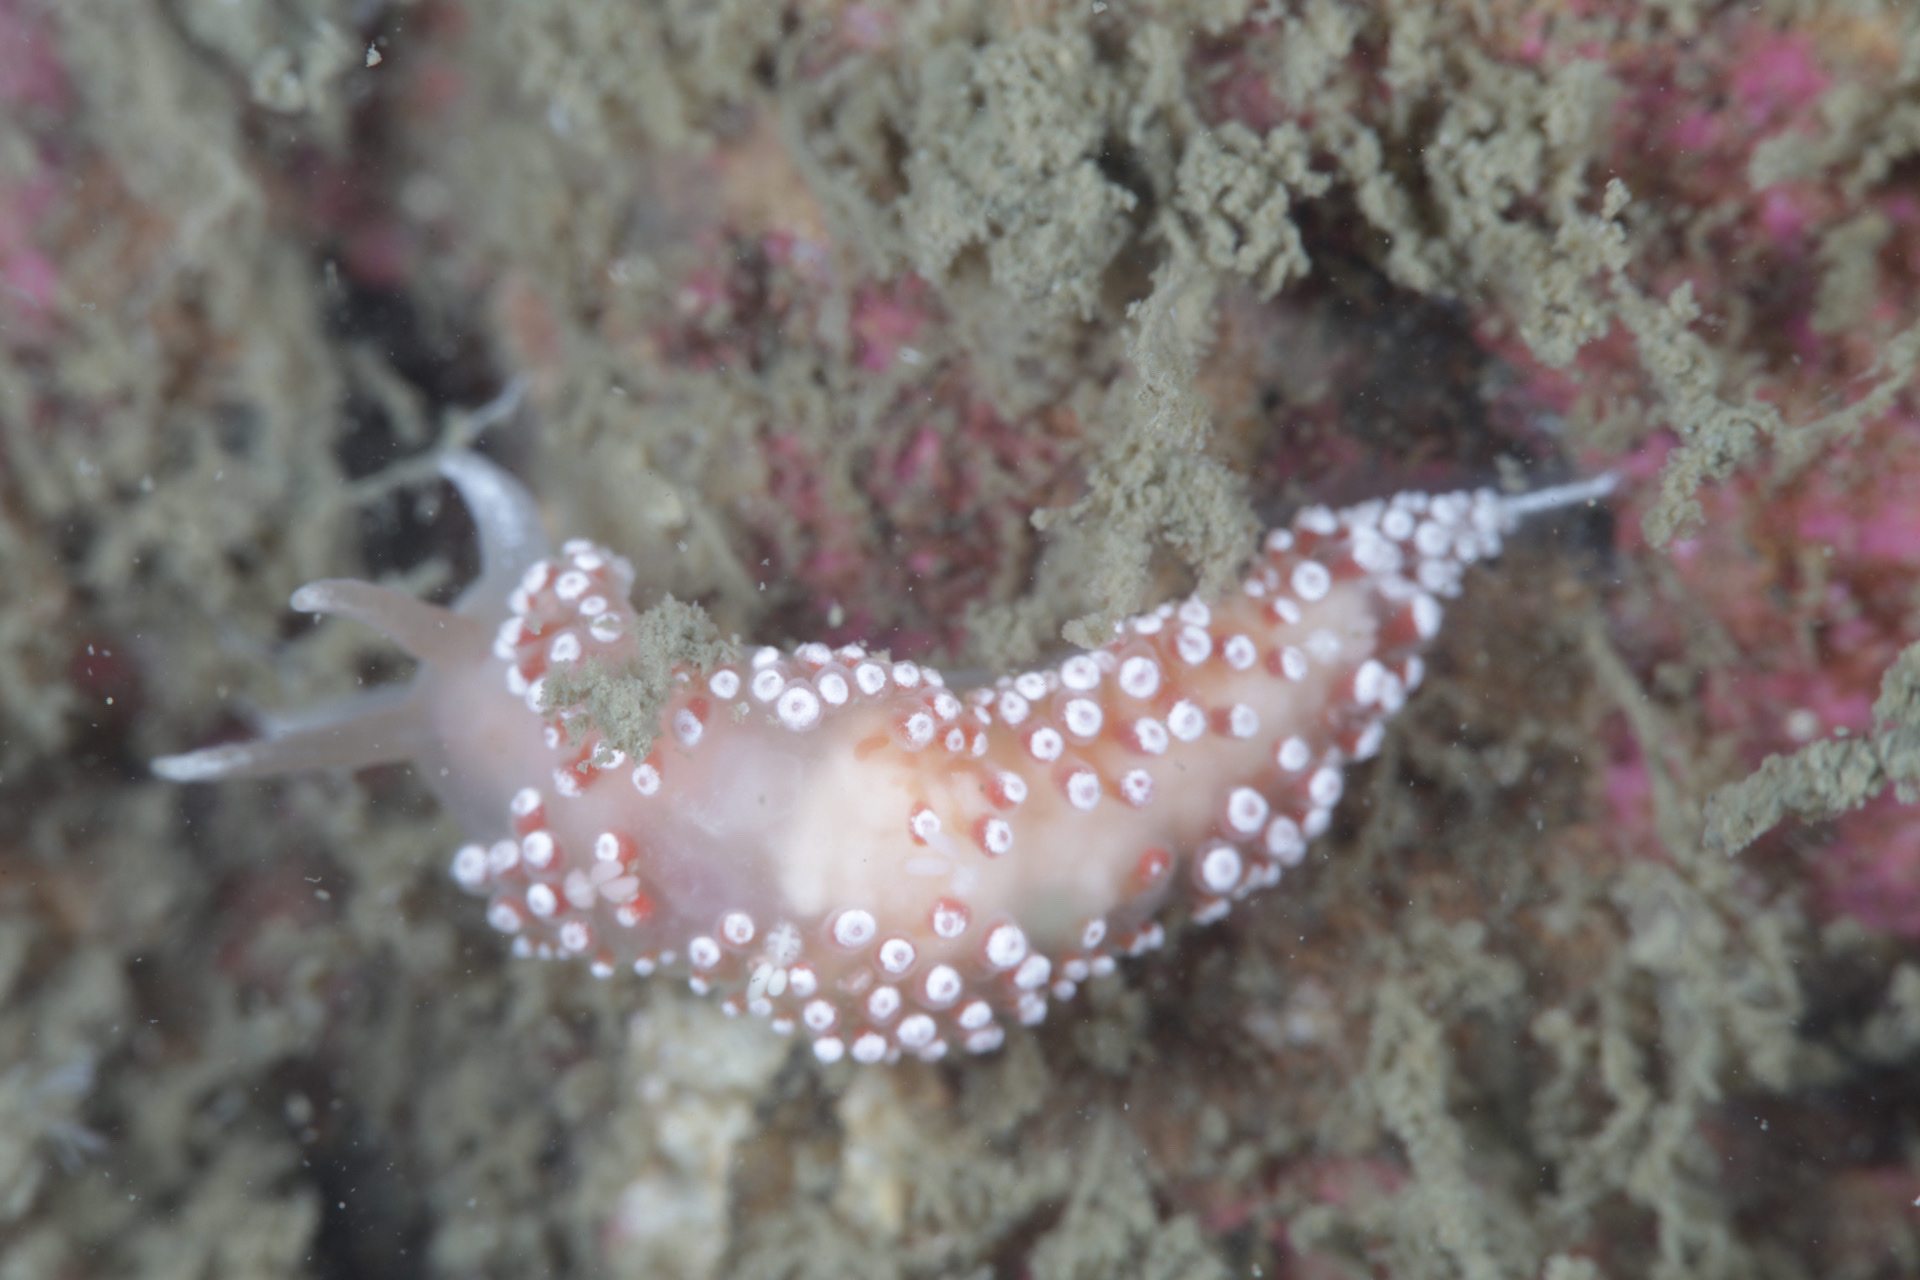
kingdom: Animalia
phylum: Mollusca
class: Gastropoda
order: Nudibranchia
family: Coryphellidae
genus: Coryphella
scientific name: Coryphella verrucosa
